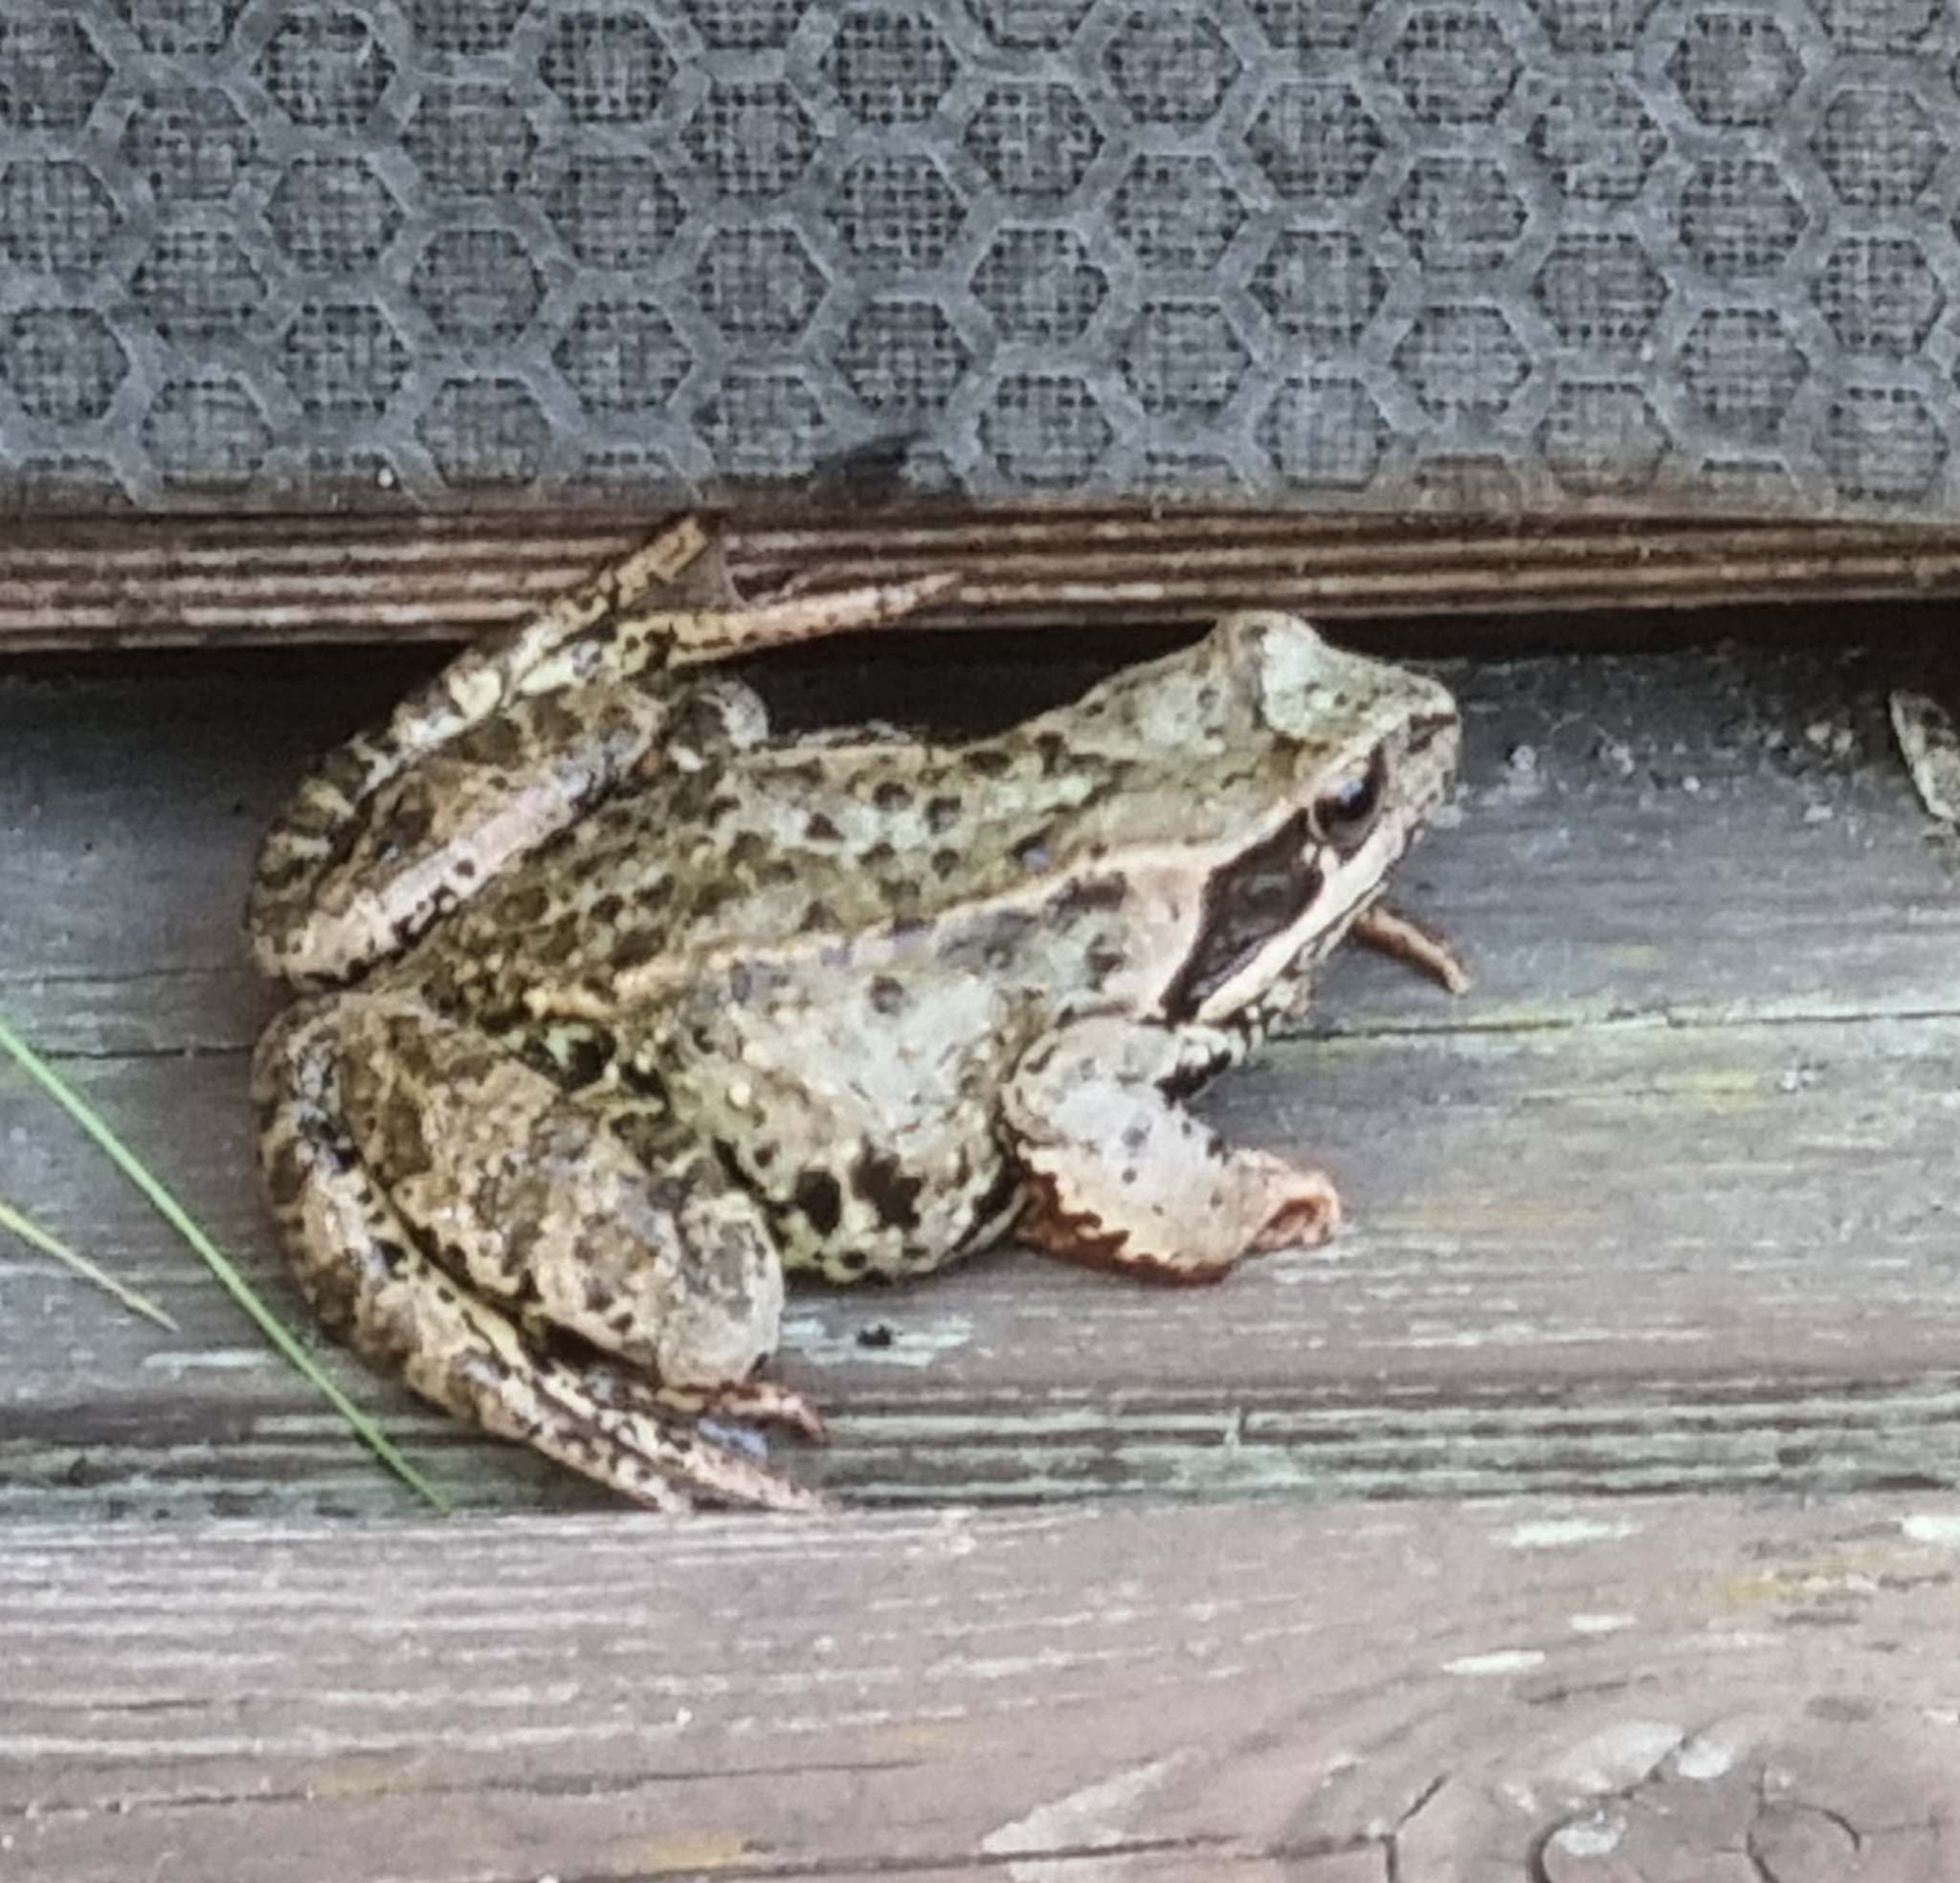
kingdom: Animalia
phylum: Chordata
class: Amphibia
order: Anura
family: Ranidae
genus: Rana
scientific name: Rana temporaria
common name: Common frog
